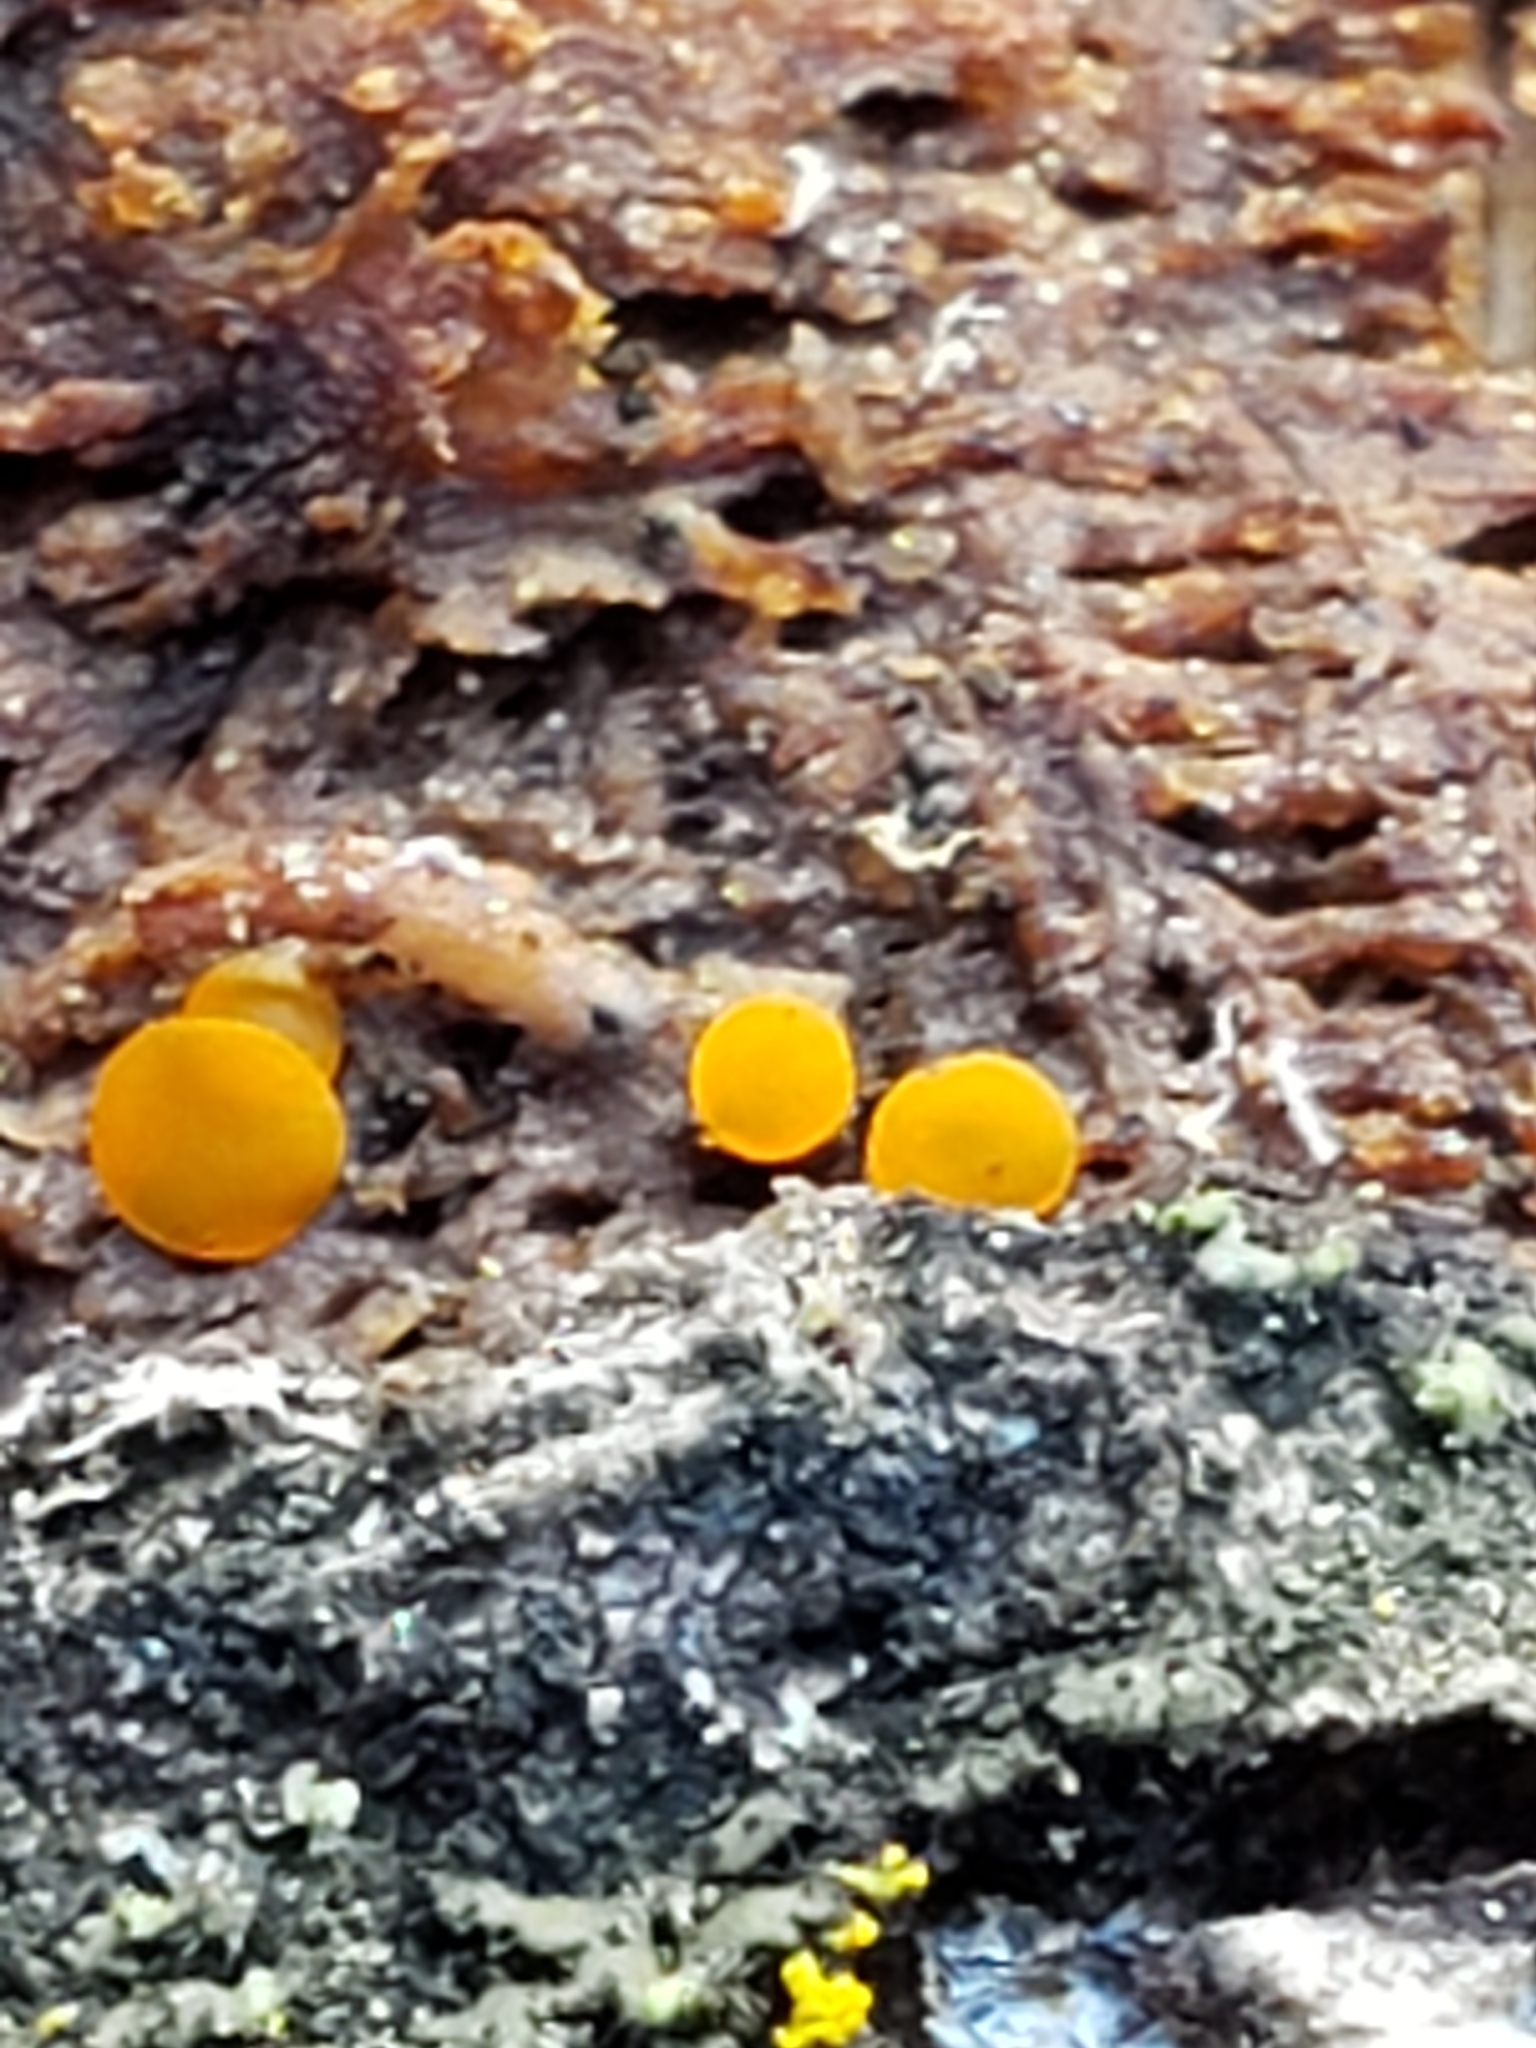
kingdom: Fungi
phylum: Ascomycota
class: Leotiomycetes
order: Helotiales
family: Pezizellaceae
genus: Calycina
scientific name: Calycina citrina
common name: Yellow fairy cups
